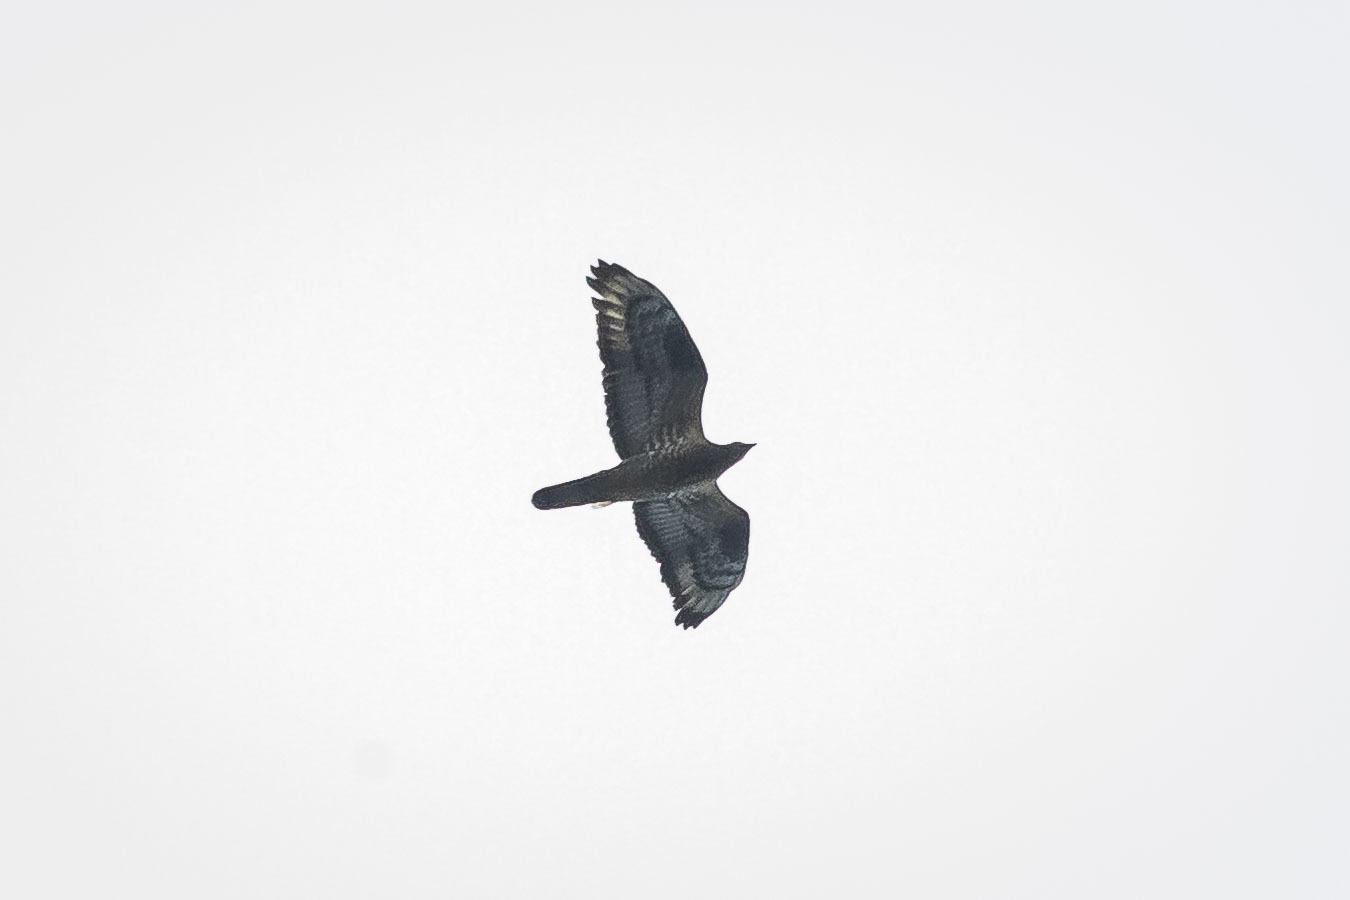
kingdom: Animalia
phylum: Chordata
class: Aves
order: Accipitriformes
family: Accipitridae
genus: Pernis
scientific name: Pernis apivorus
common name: European honey buzzard
